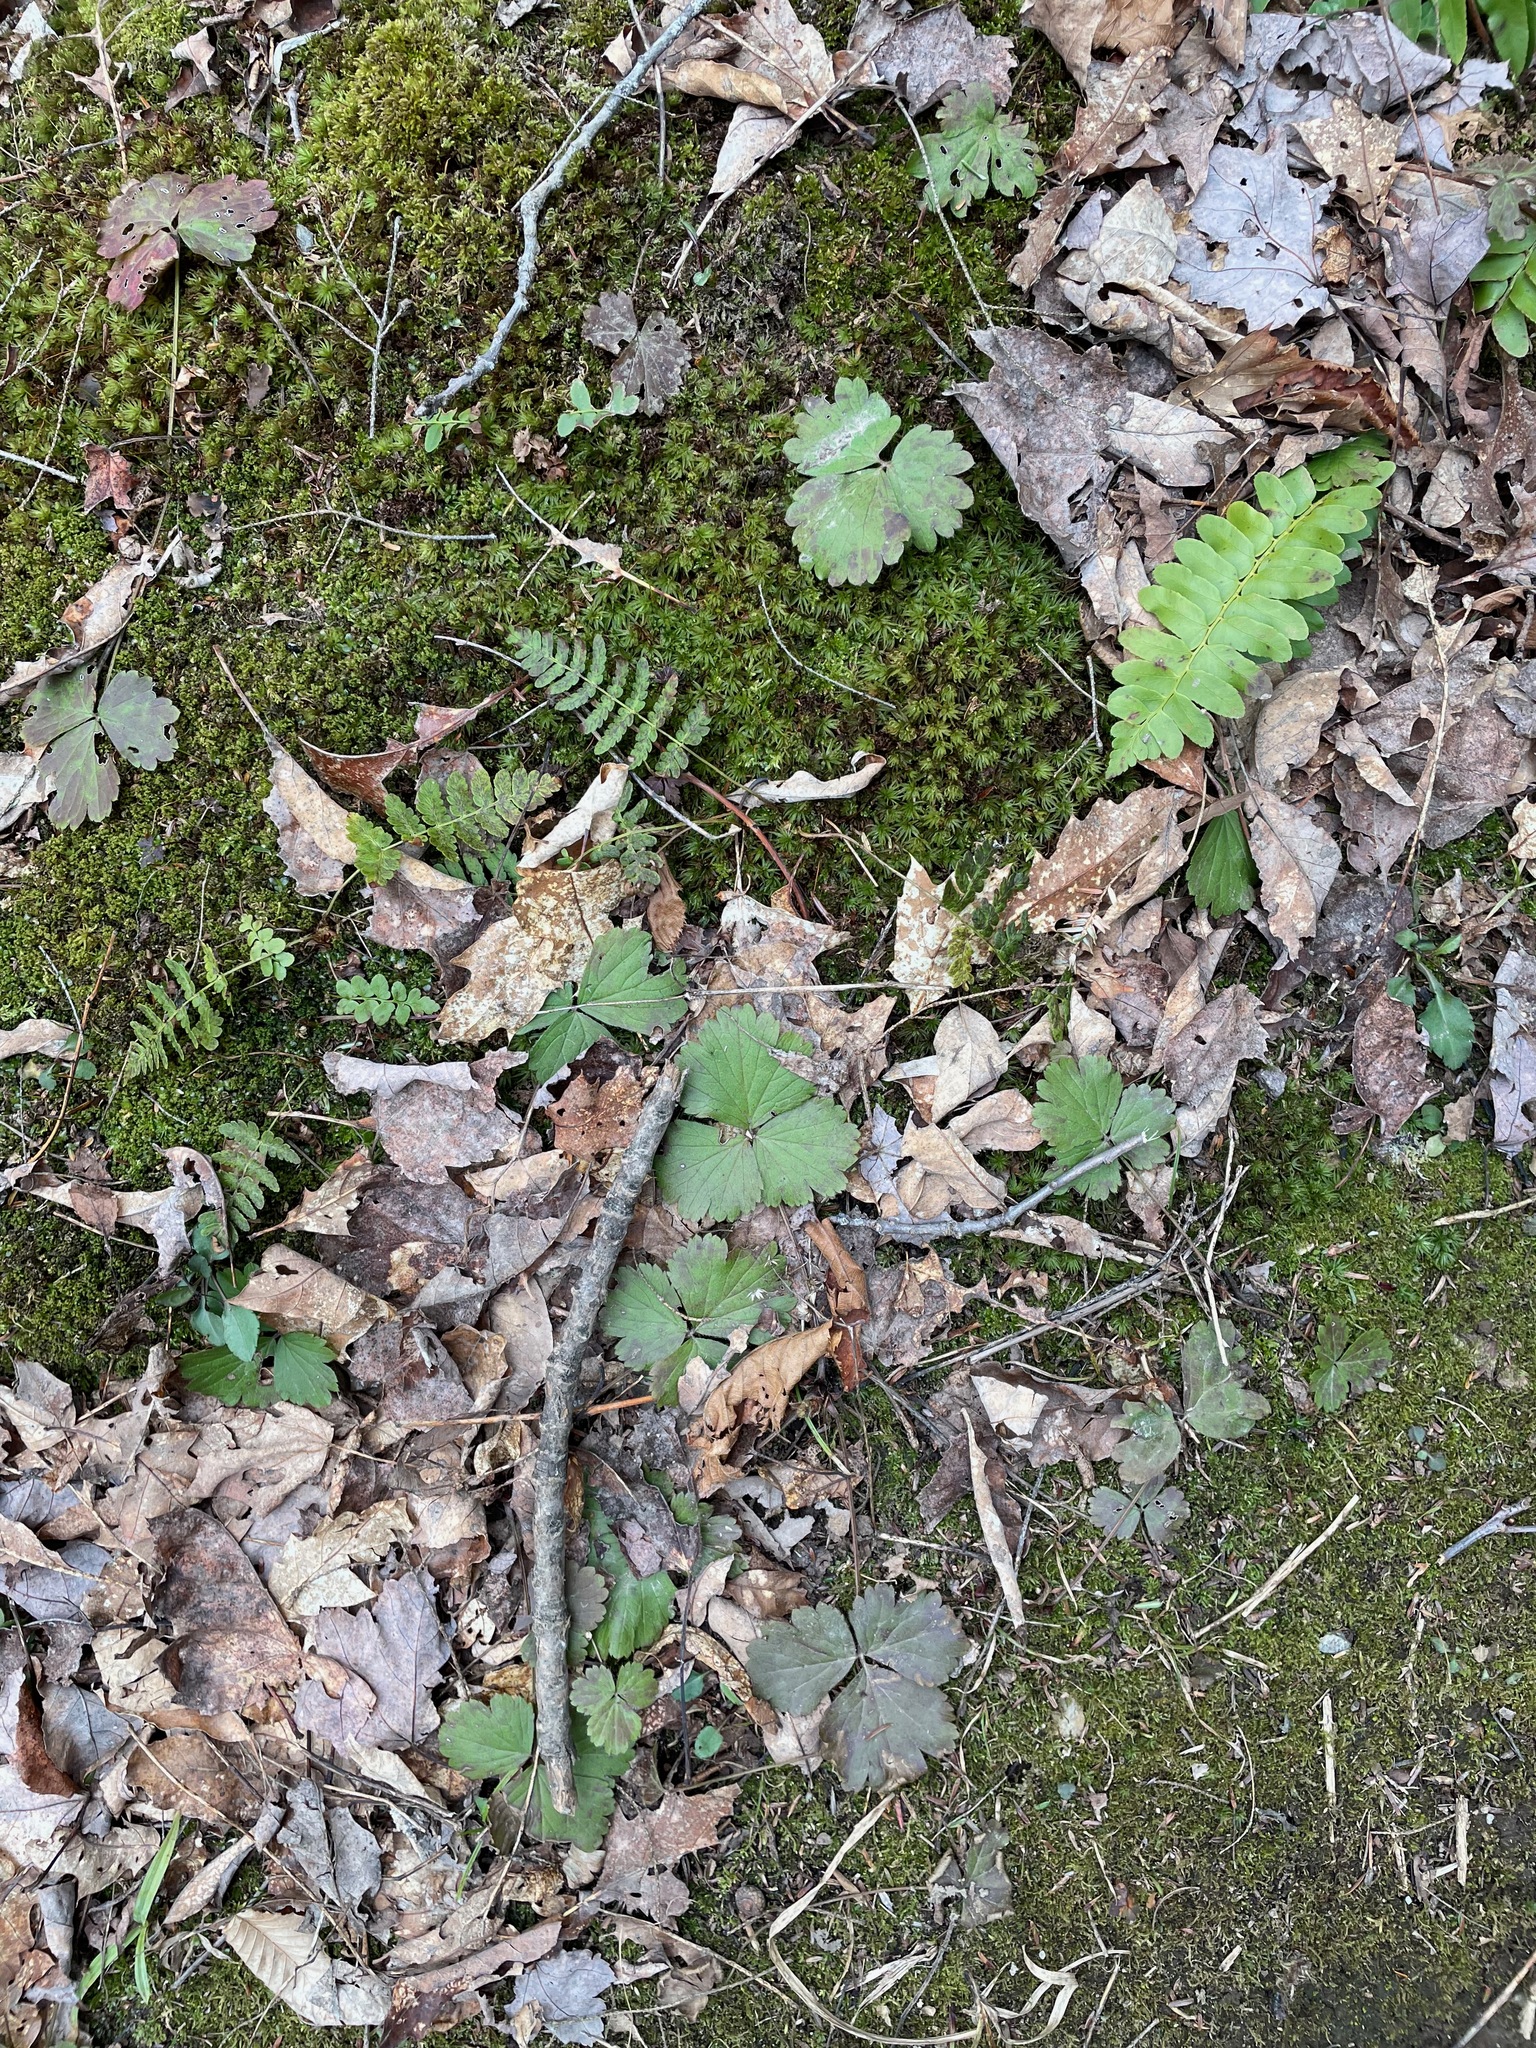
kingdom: Plantae
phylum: Tracheophyta
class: Magnoliopsida
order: Rosales
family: Rosaceae
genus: Geum
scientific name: Geum fragarioides
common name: Appalachian barren strawberry
